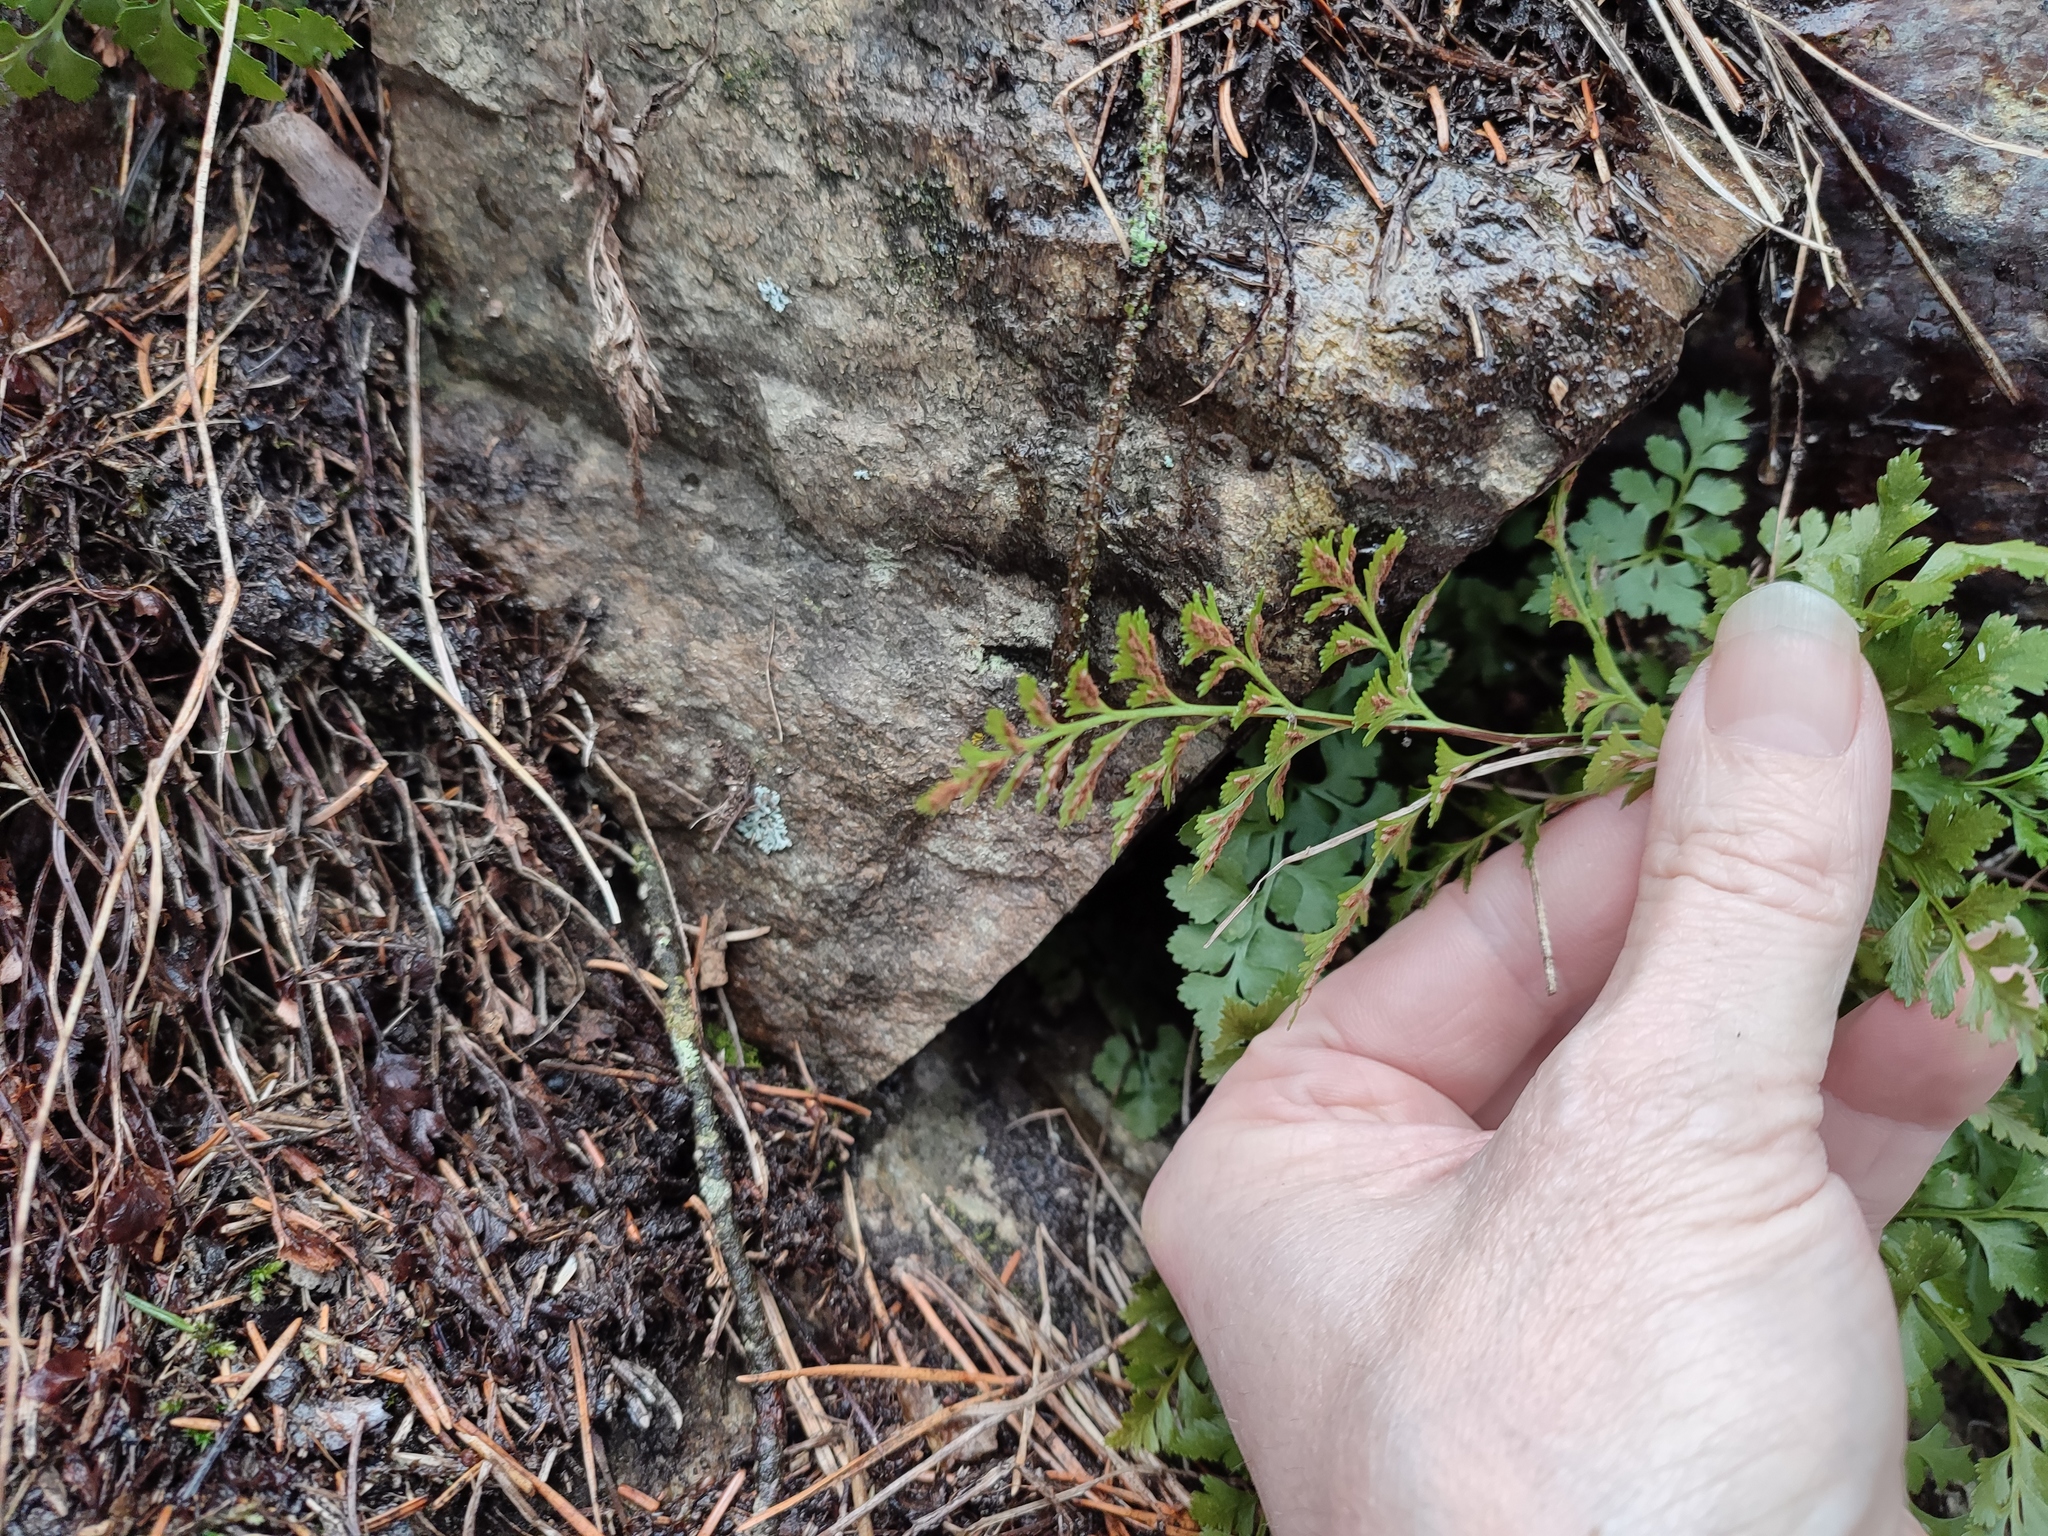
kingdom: Plantae
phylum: Tracheophyta
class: Polypodiopsida
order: Polypodiales
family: Aspleniaceae
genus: Asplenium
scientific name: Asplenium cuneifolium
